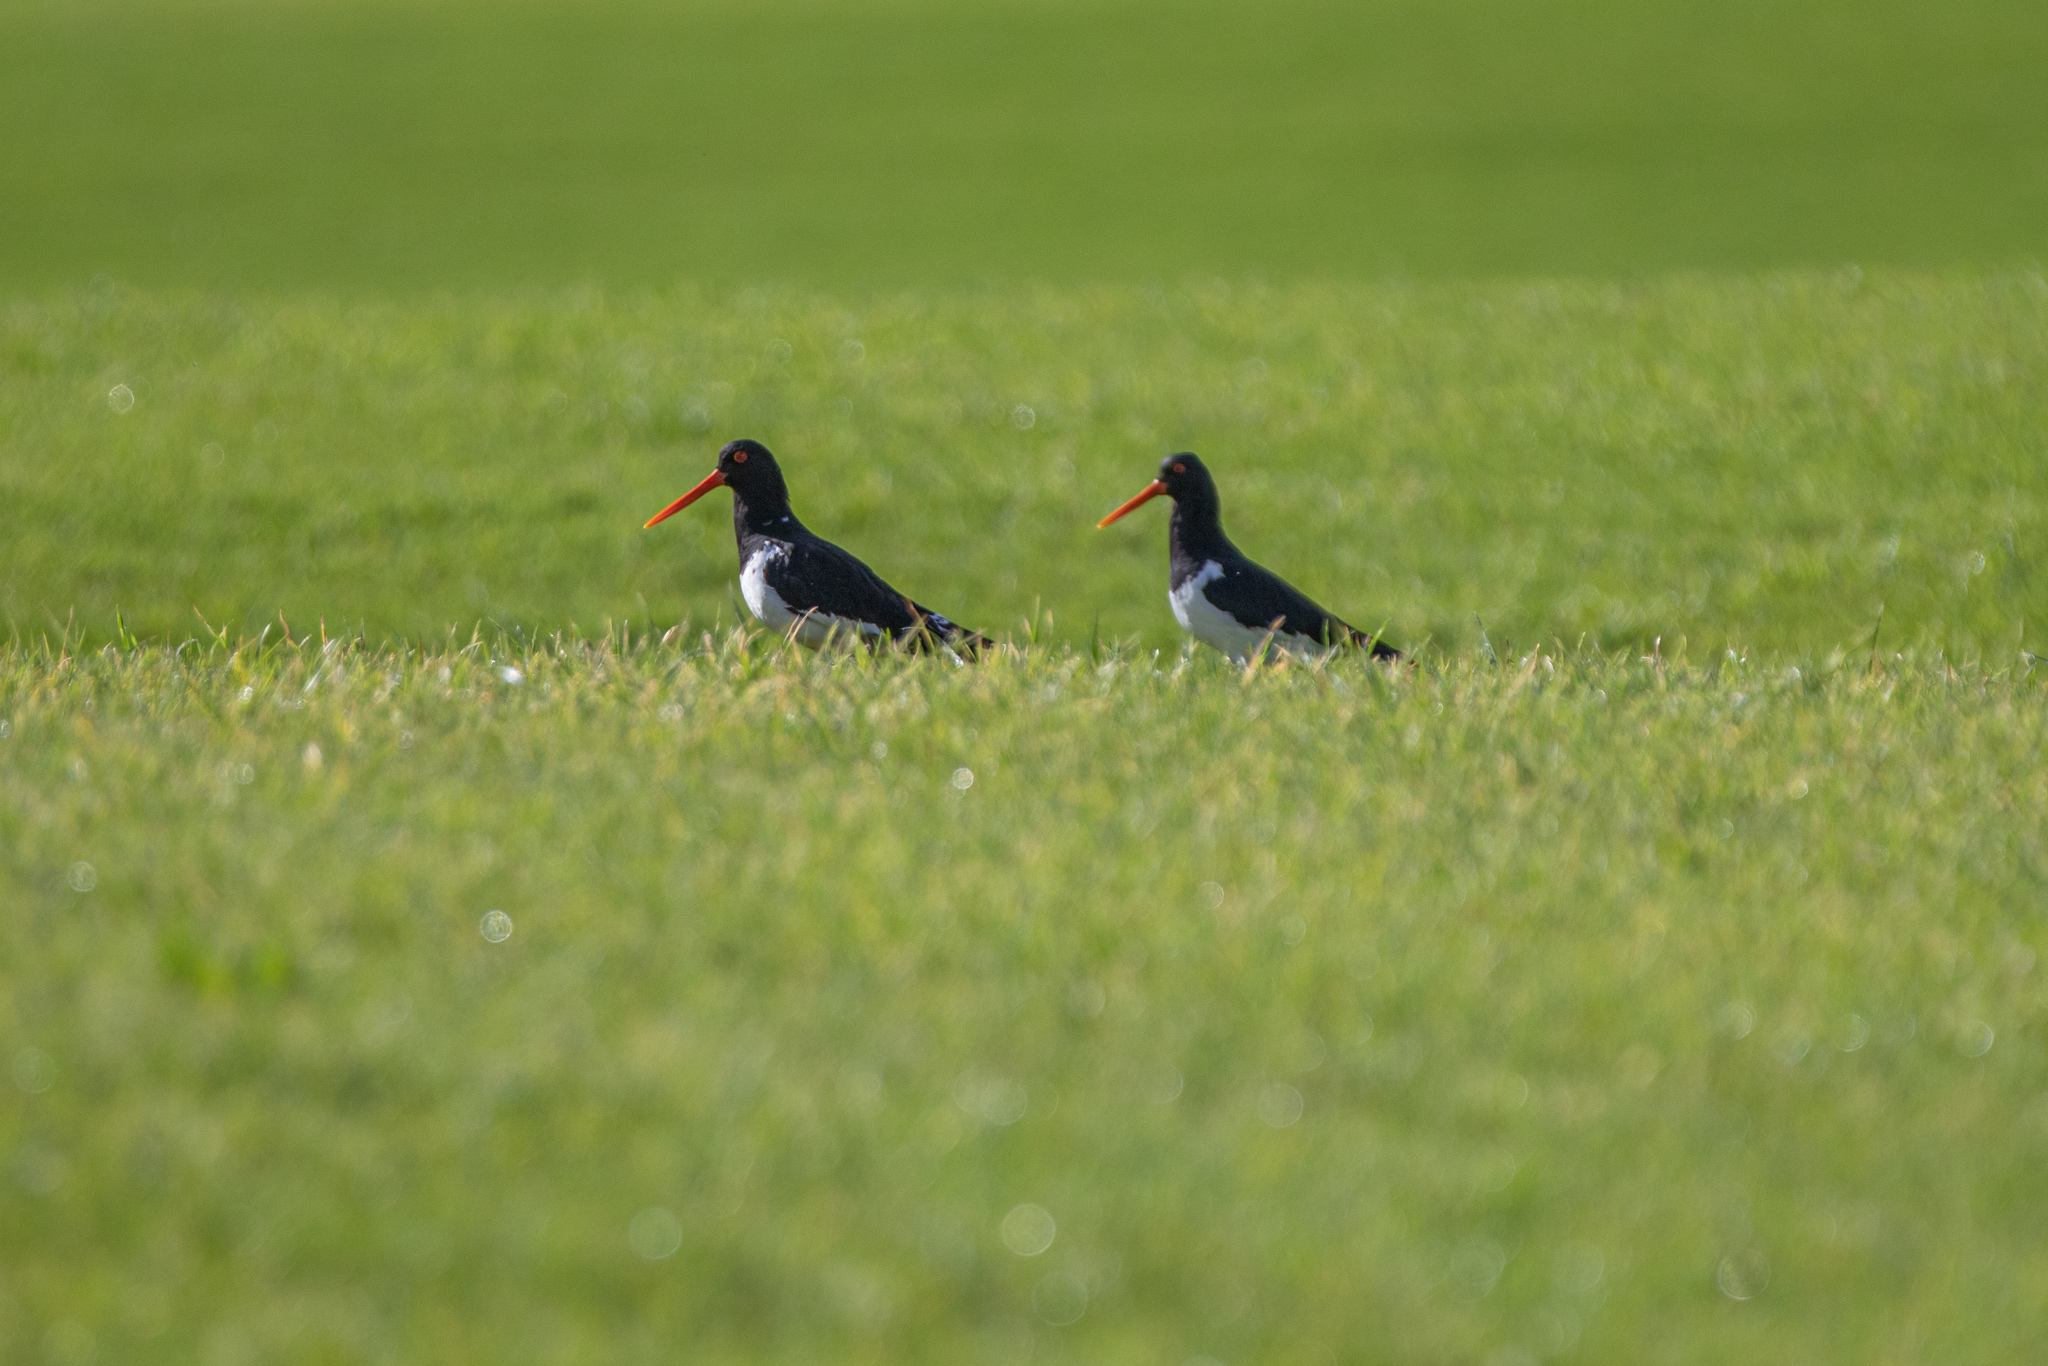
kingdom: Animalia
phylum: Chordata
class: Aves
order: Charadriiformes
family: Haematopodidae
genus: Haematopus
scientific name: Haematopus finschi
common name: South island oystercatcher
